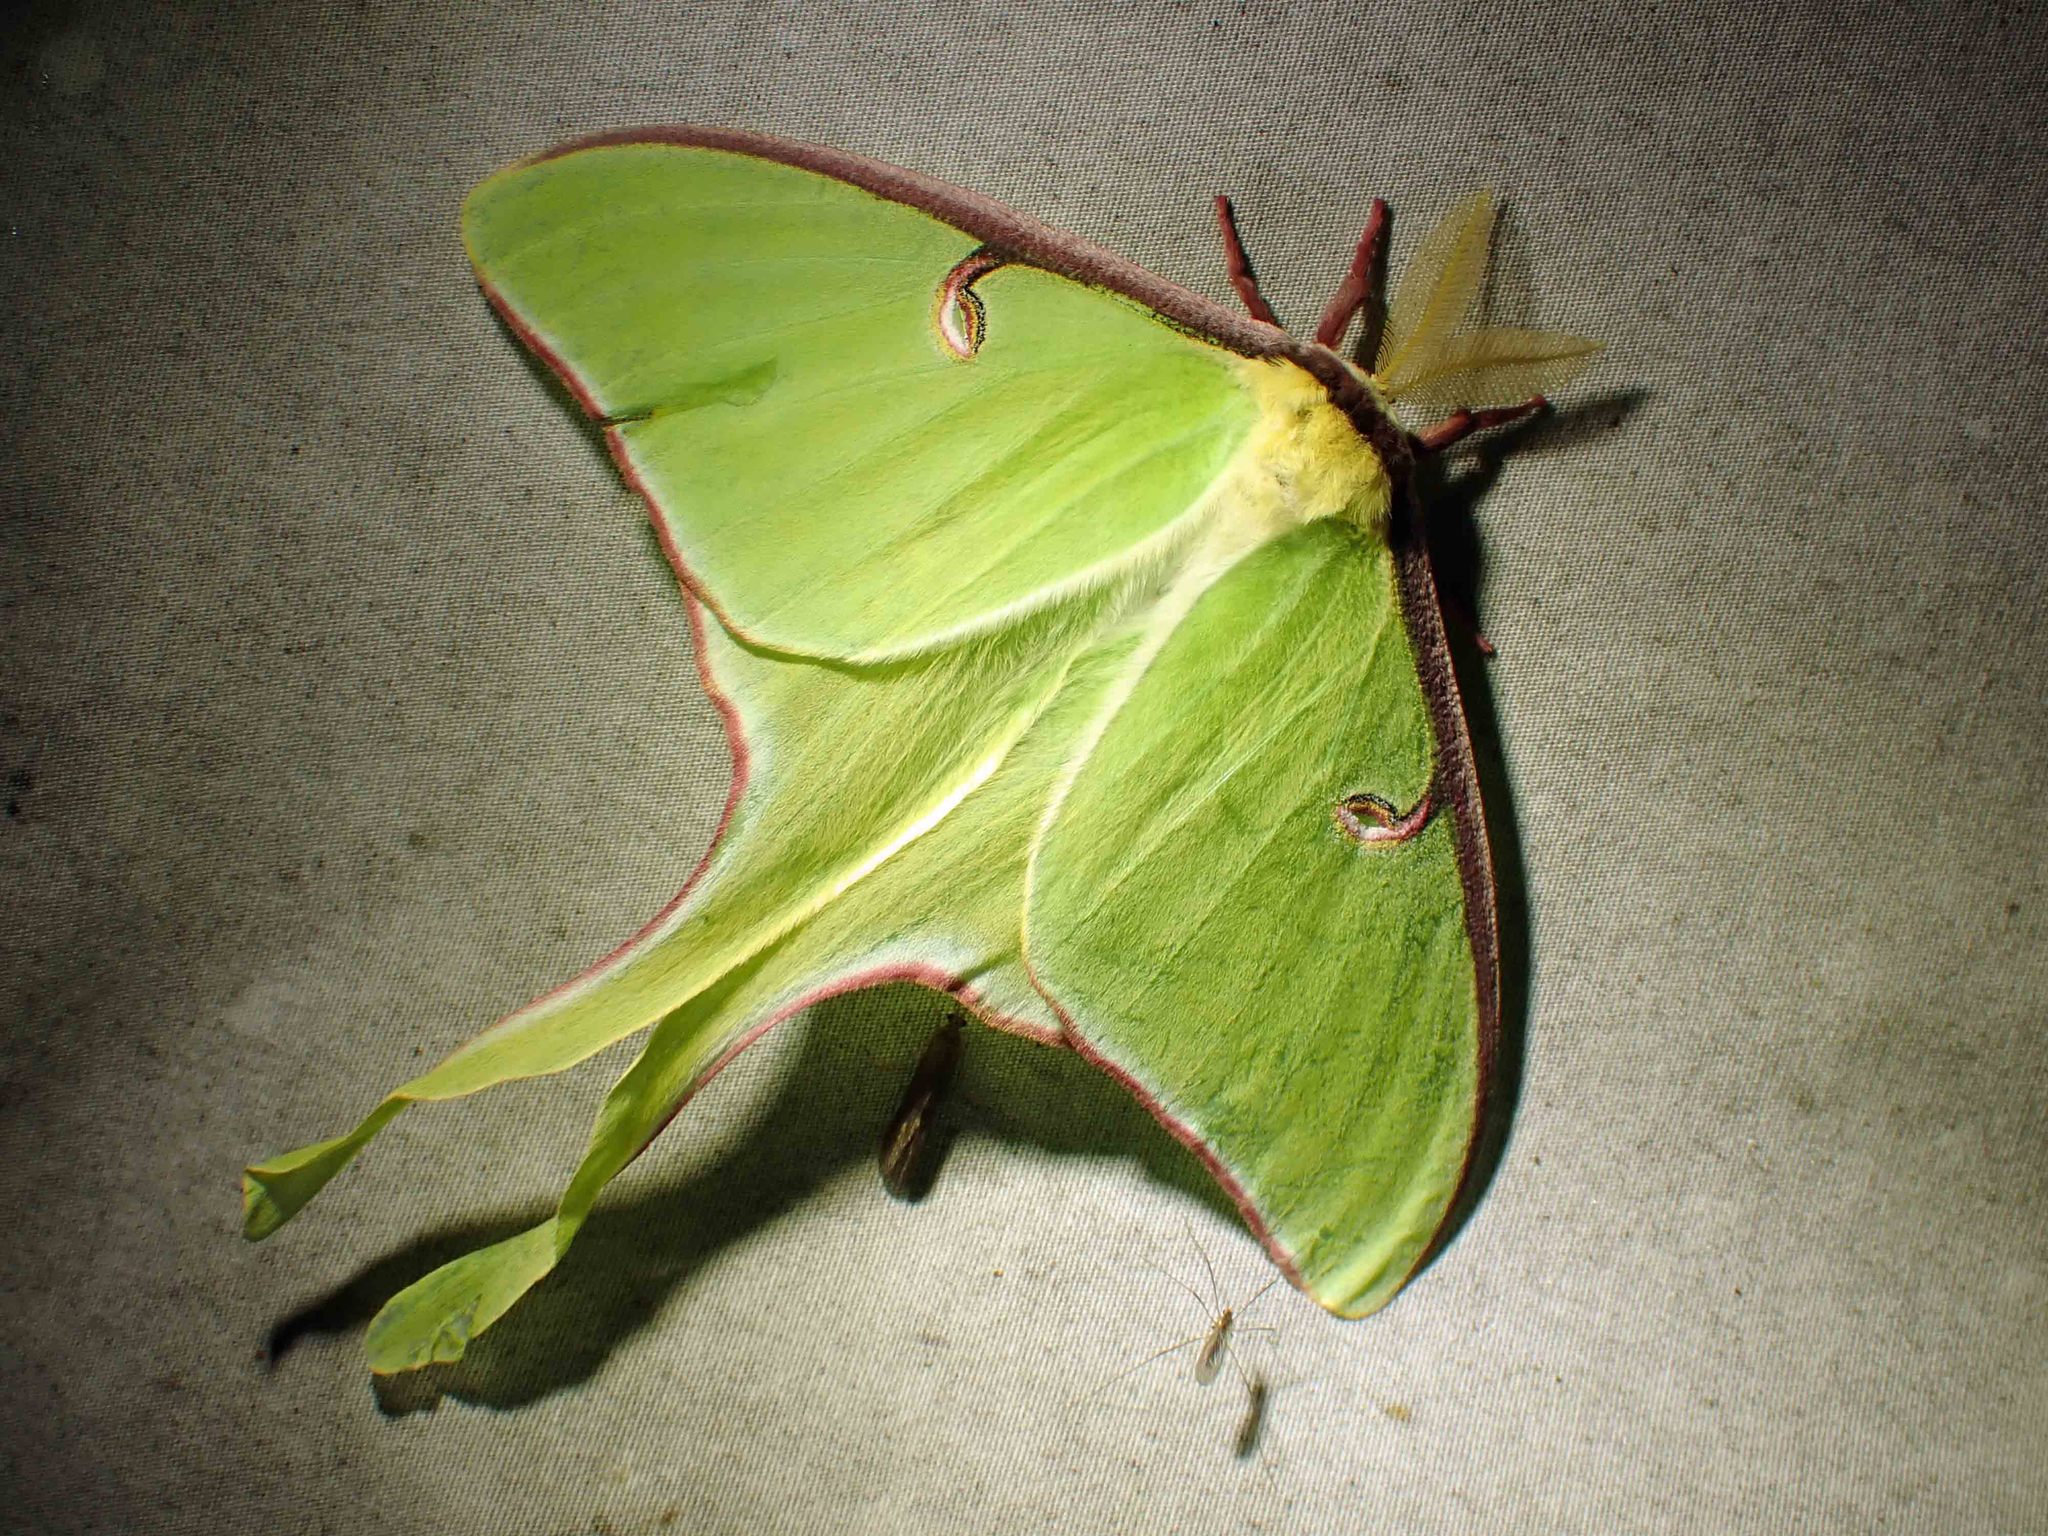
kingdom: Animalia
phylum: Arthropoda
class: Insecta
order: Lepidoptera
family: Saturniidae
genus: Actias
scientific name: Actias luna
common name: Luna moth
